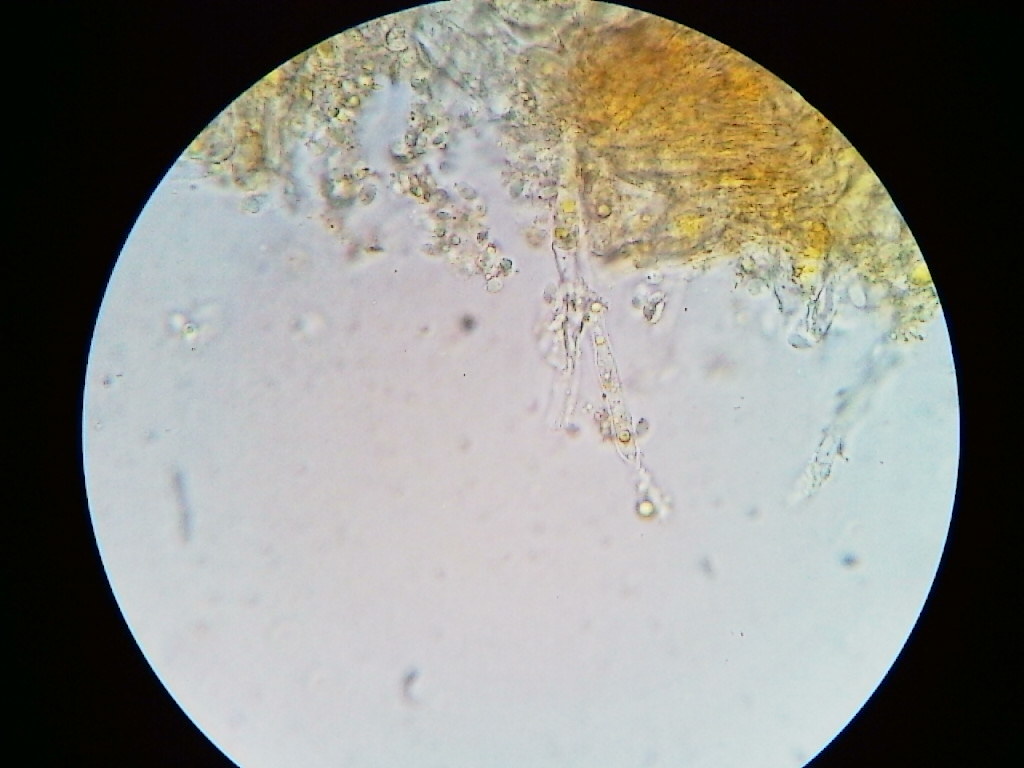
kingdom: Fungi
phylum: Basidiomycota
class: Pucciniomycetes
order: Pucciniales
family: Cronartiaceae
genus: Cronartium
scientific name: Cronartium ribicola
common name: White pine blister rust
